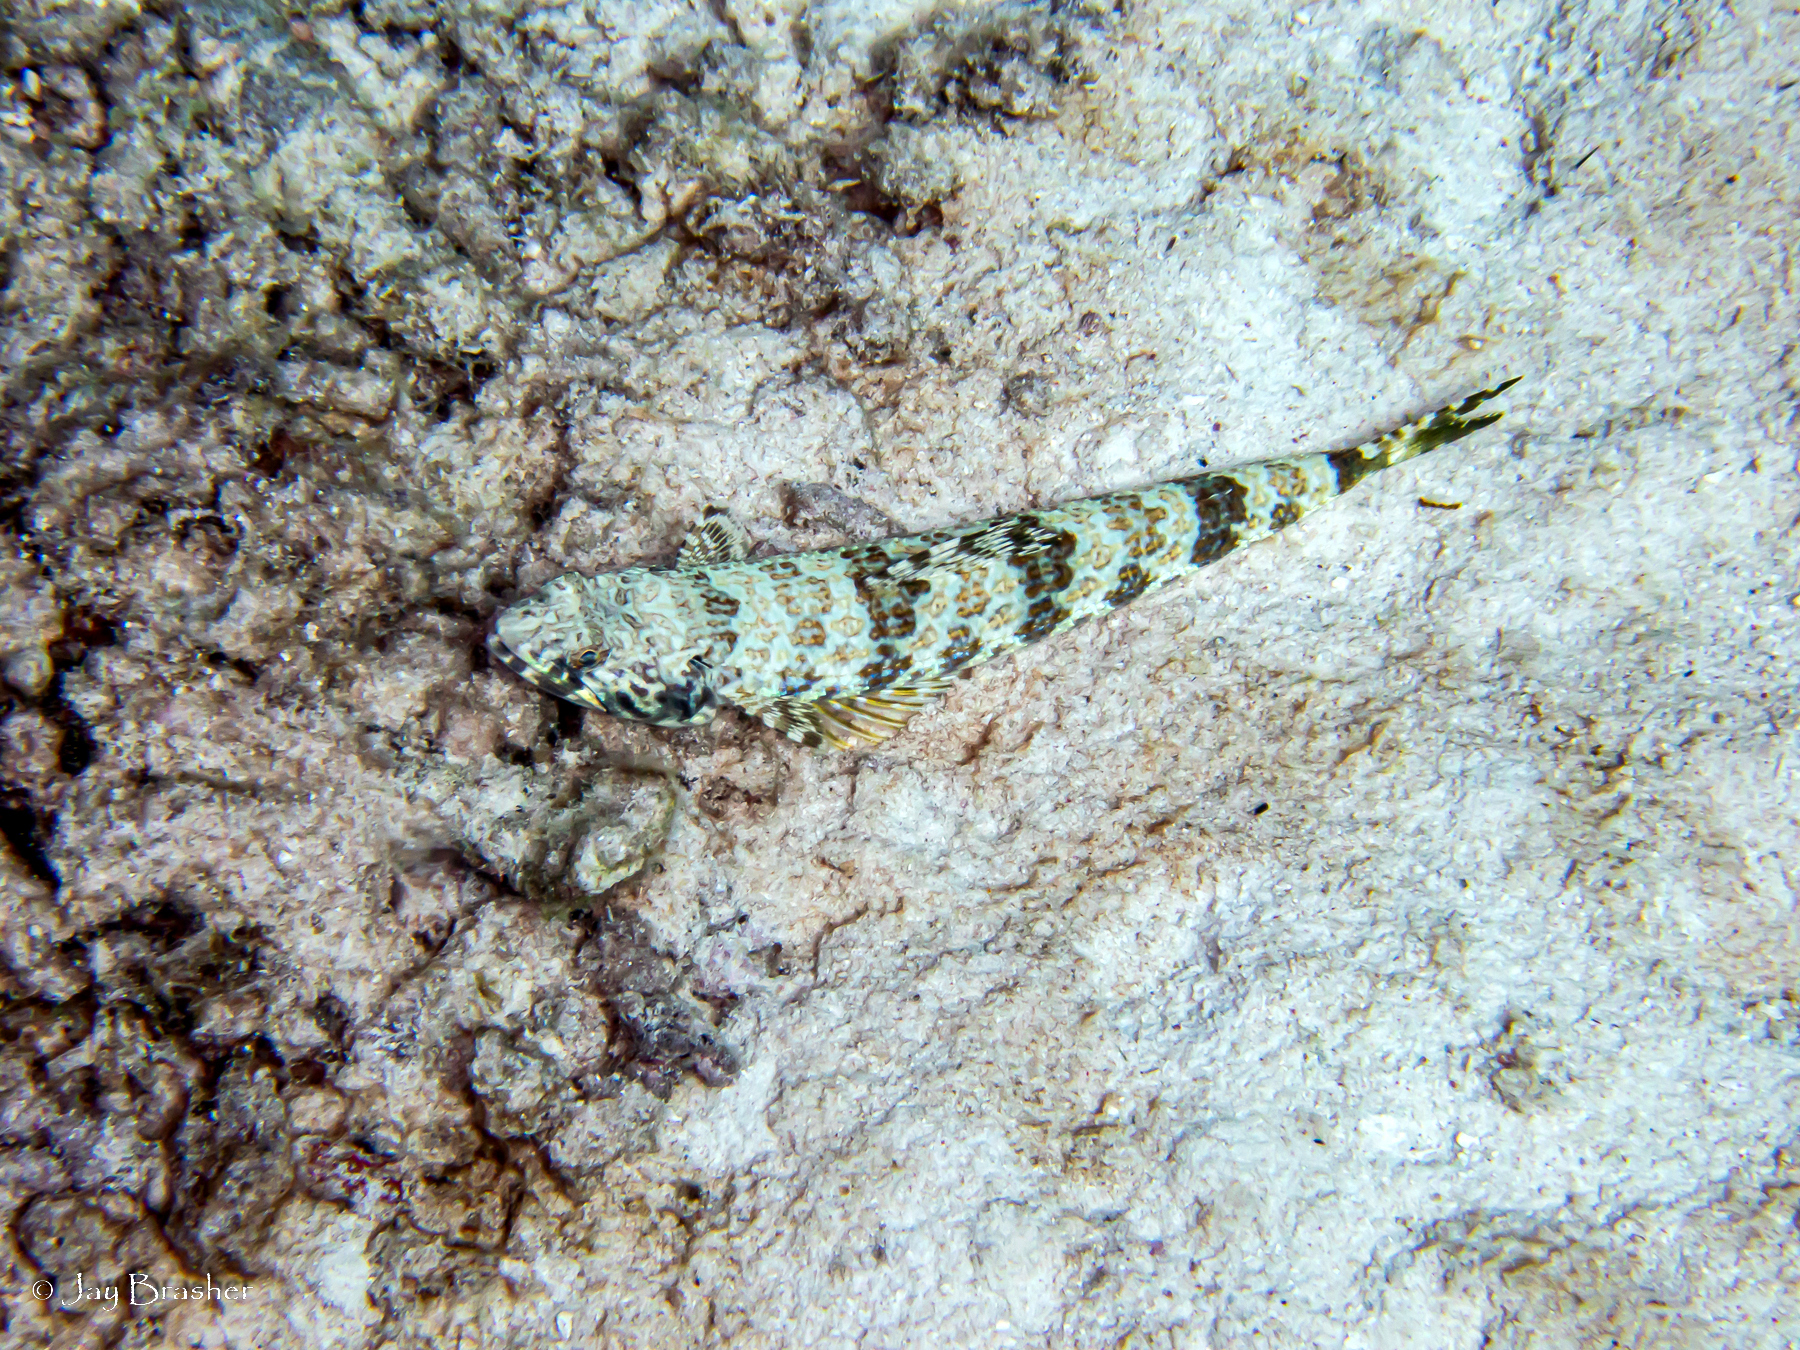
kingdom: Animalia
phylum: Chordata
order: Aulopiformes
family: Synodontidae
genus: Synodus
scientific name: Synodus intermedius
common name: Sand diver
